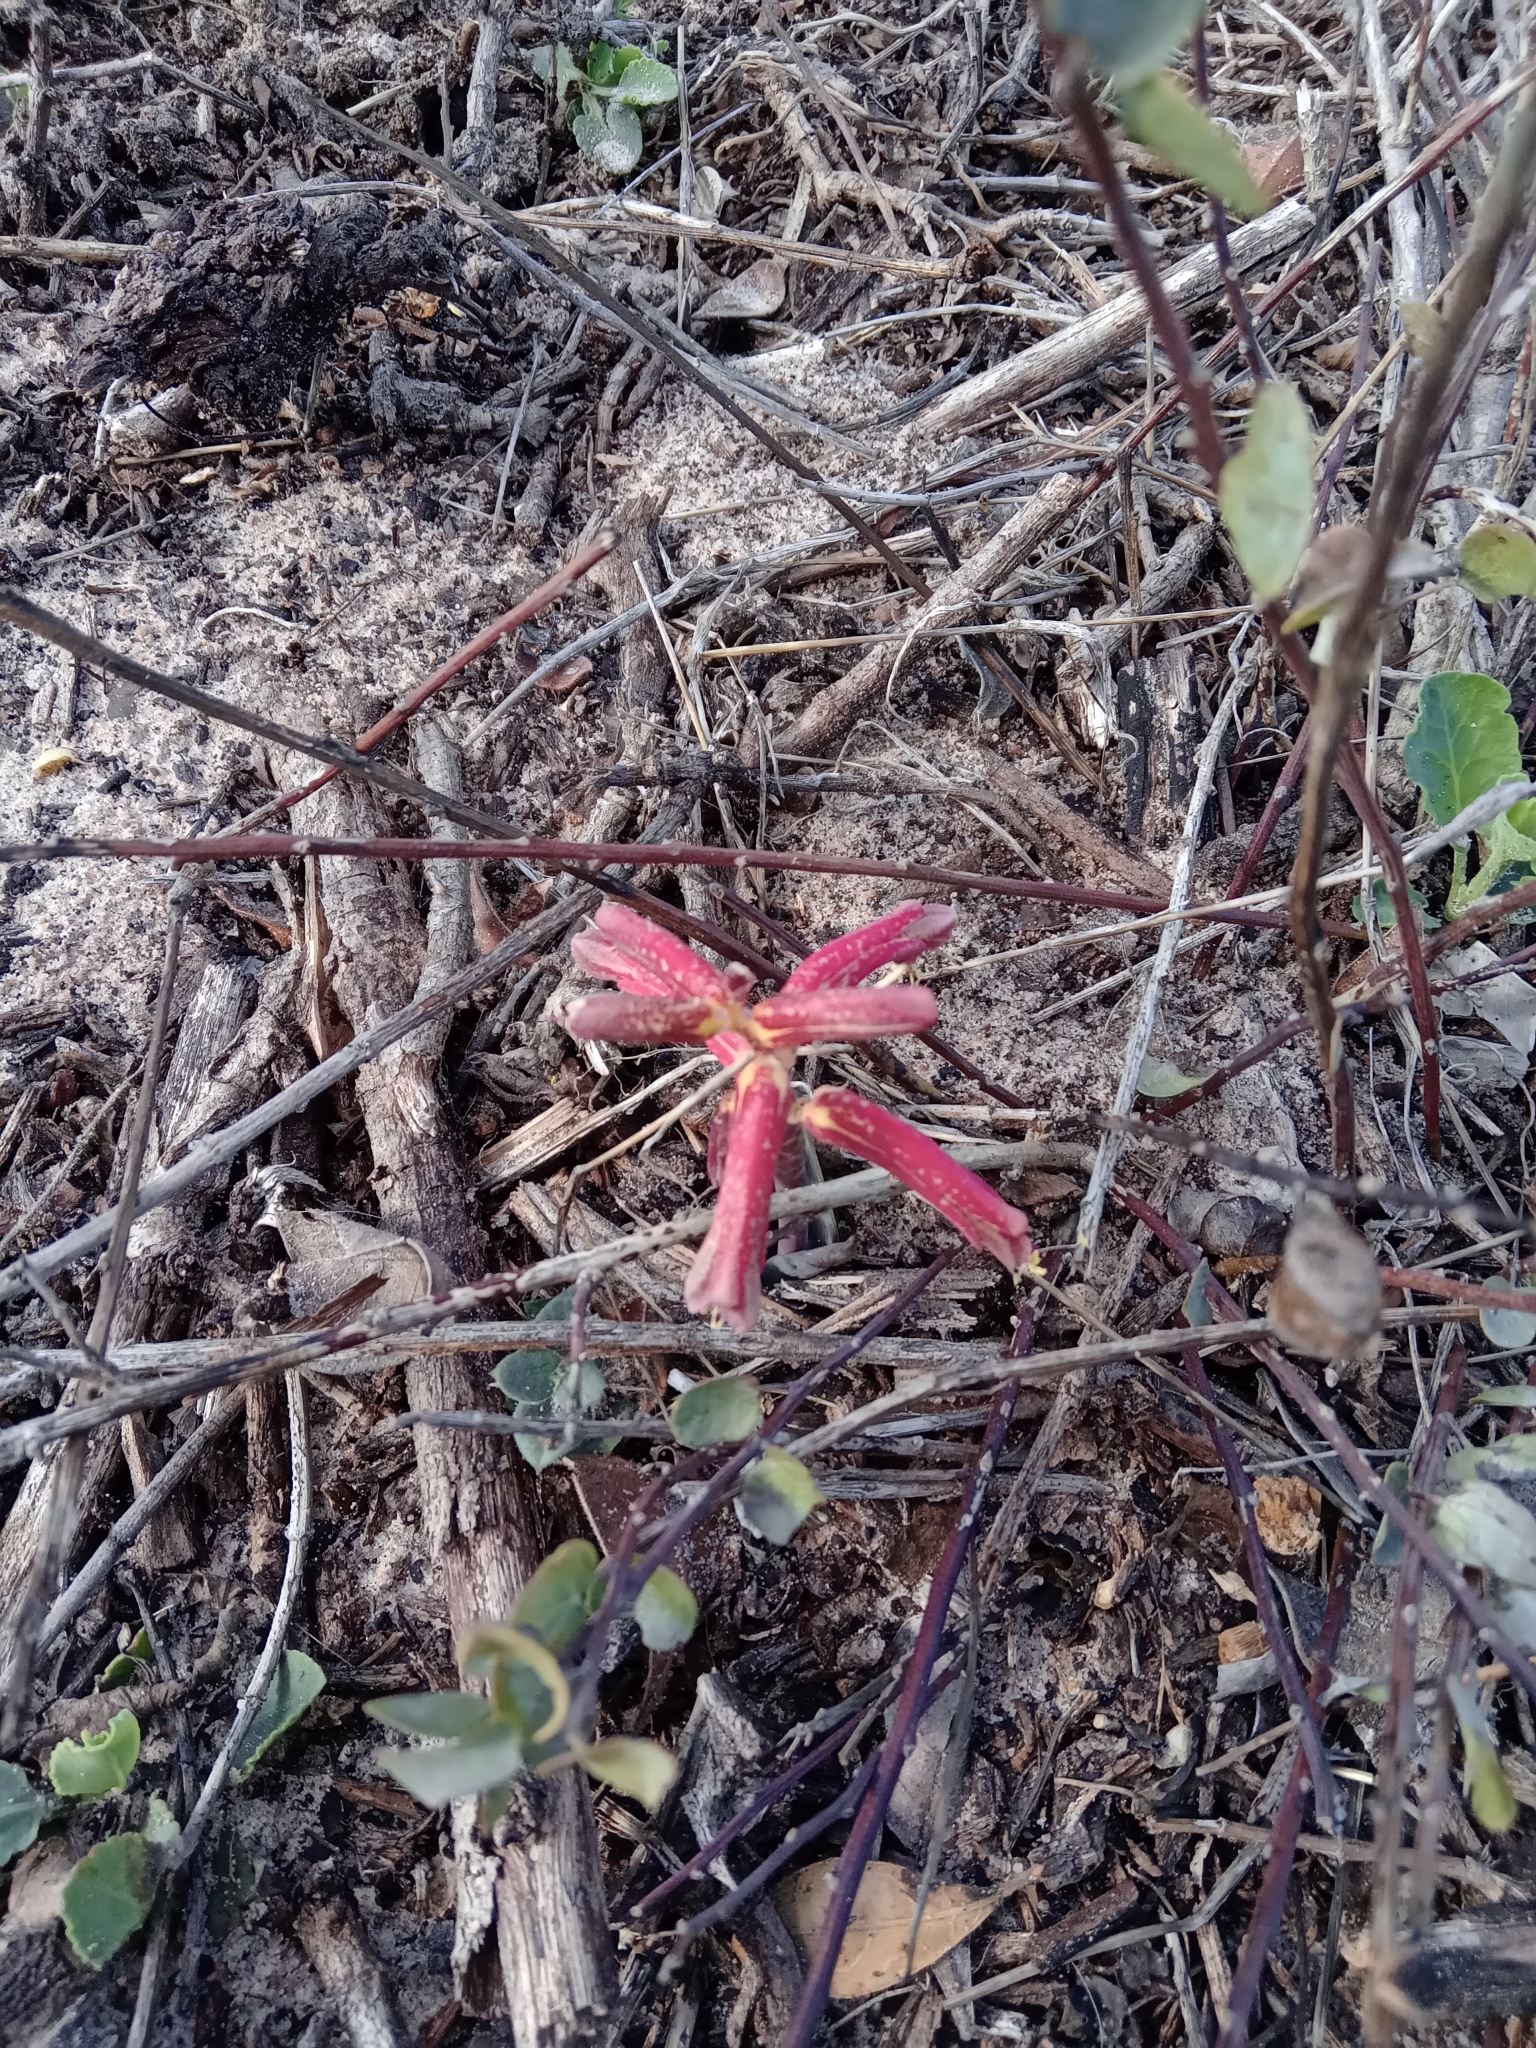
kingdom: Plantae
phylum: Tracheophyta
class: Liliopsida
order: Asparagales
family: Asparagaceae
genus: Lachenalia
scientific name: Lachenalia punctata
